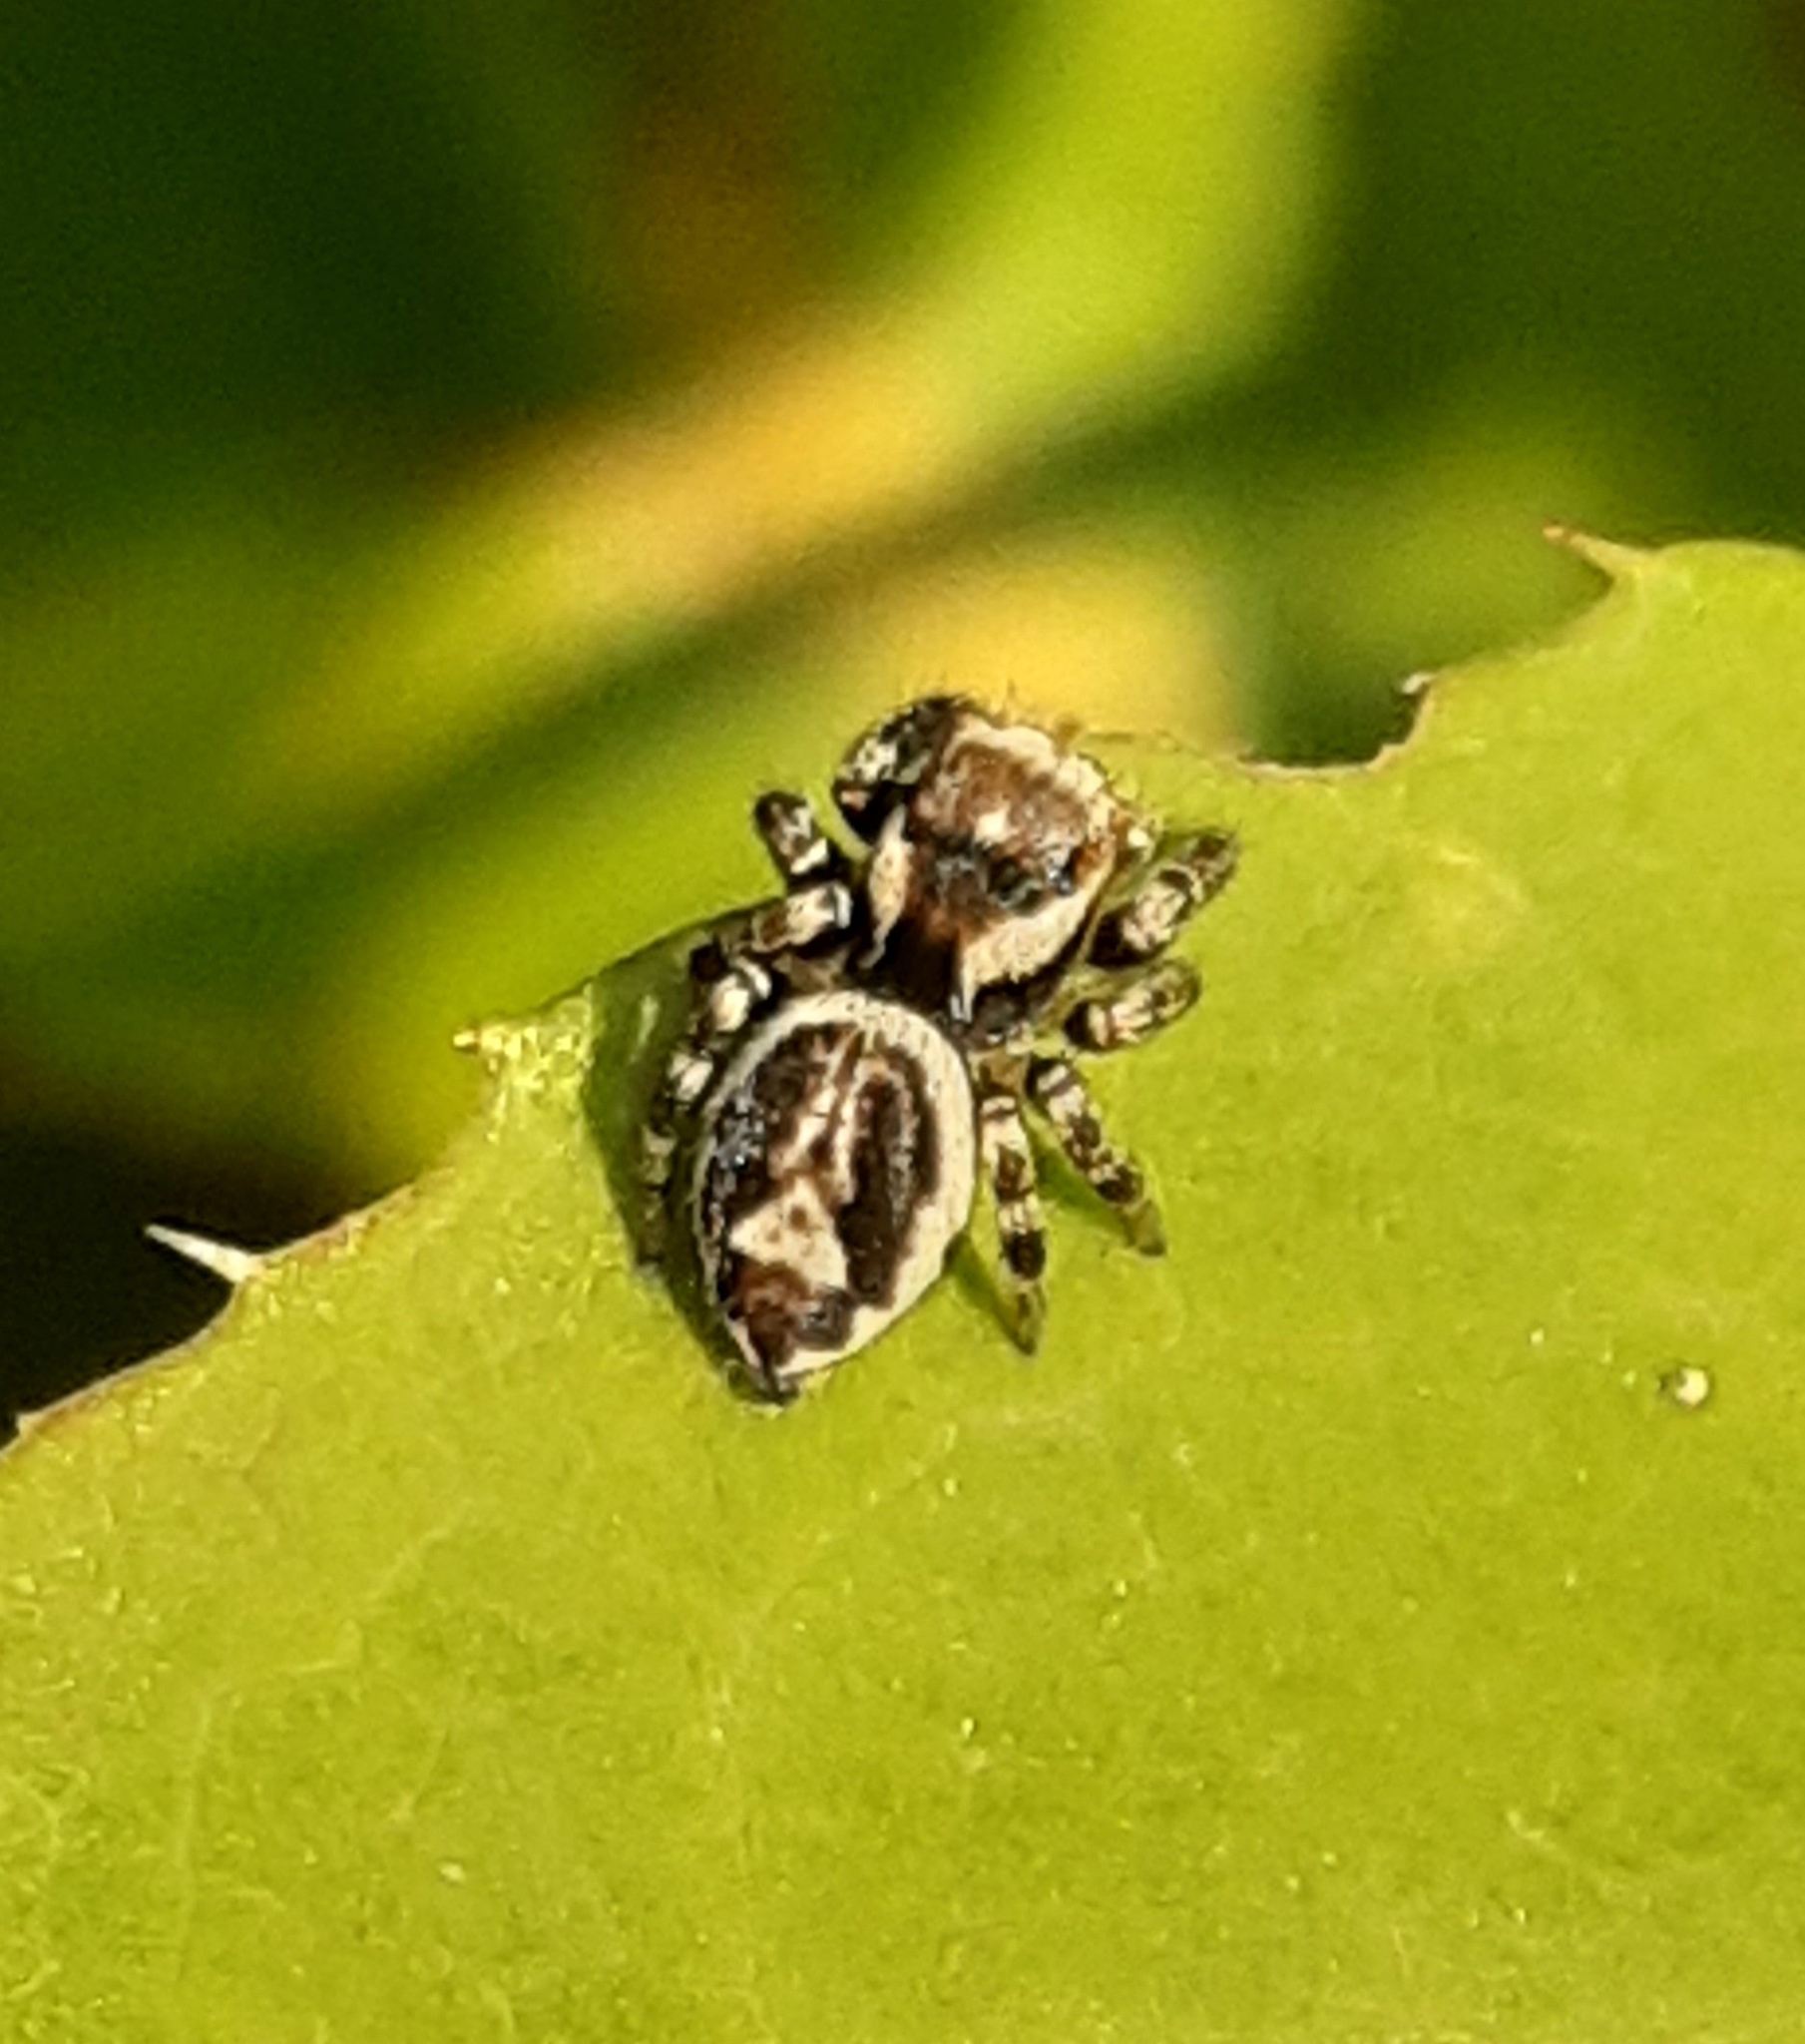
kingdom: Animalia
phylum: Arthropoda
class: Arachnida
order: Araneae
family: Salticidae
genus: Evarcha
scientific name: Evarcha falcata
